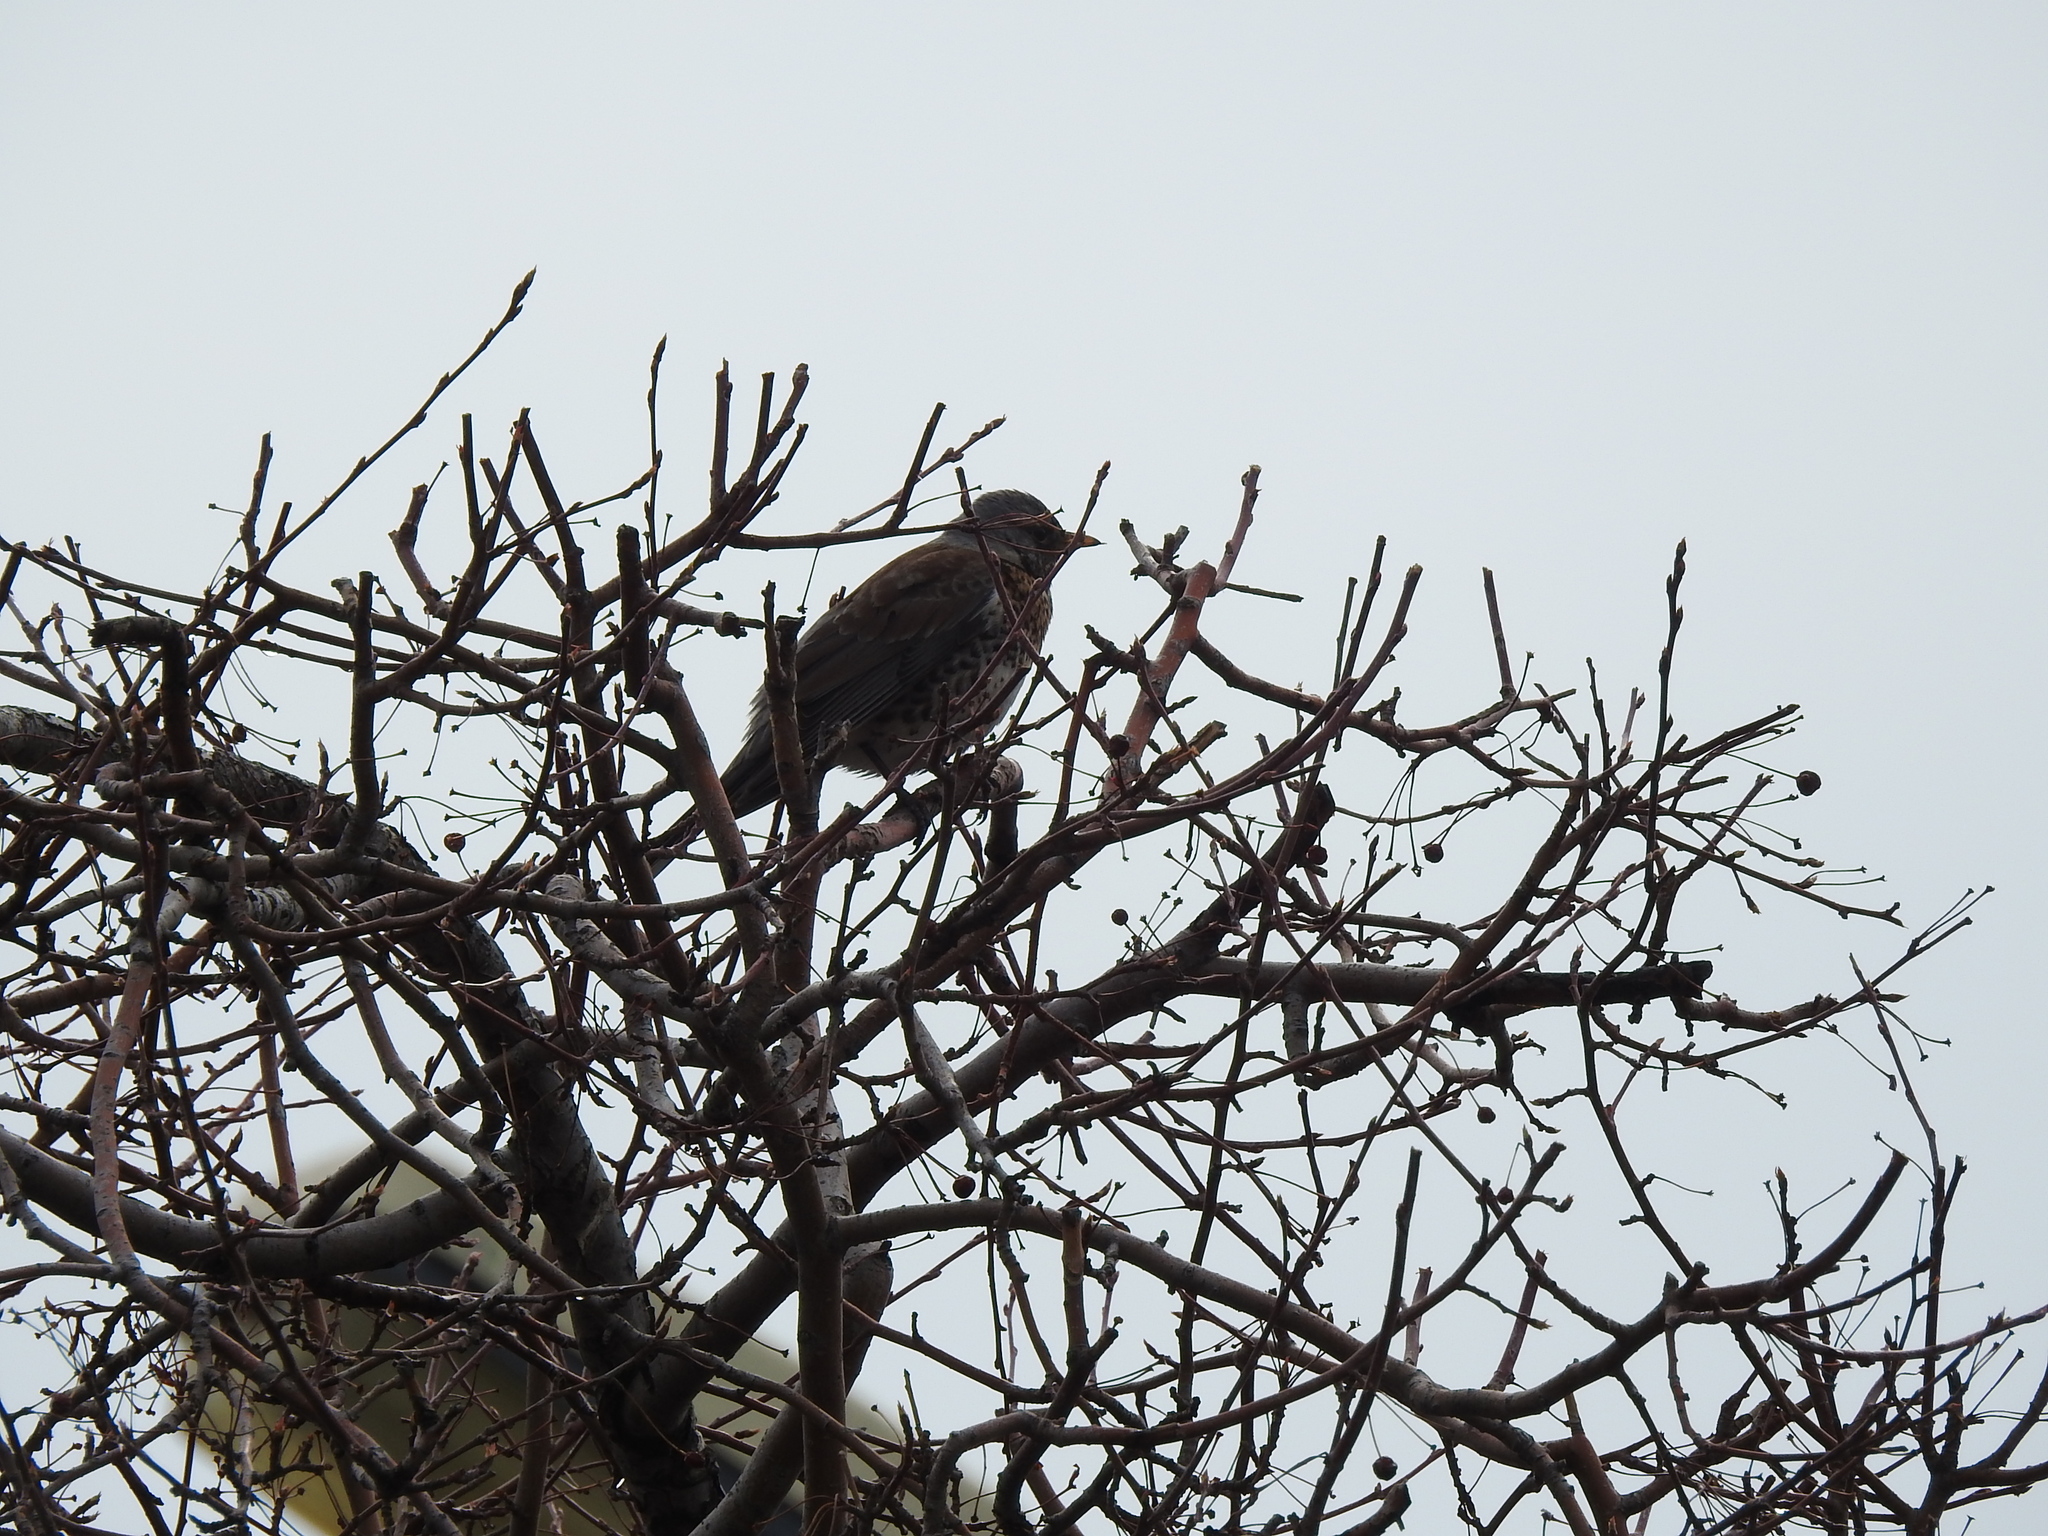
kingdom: Animalia
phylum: Chordata
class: Aves
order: Passeriformes
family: Turdidae
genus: Turdus
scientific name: Turdus pilaris
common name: Fieldfare
